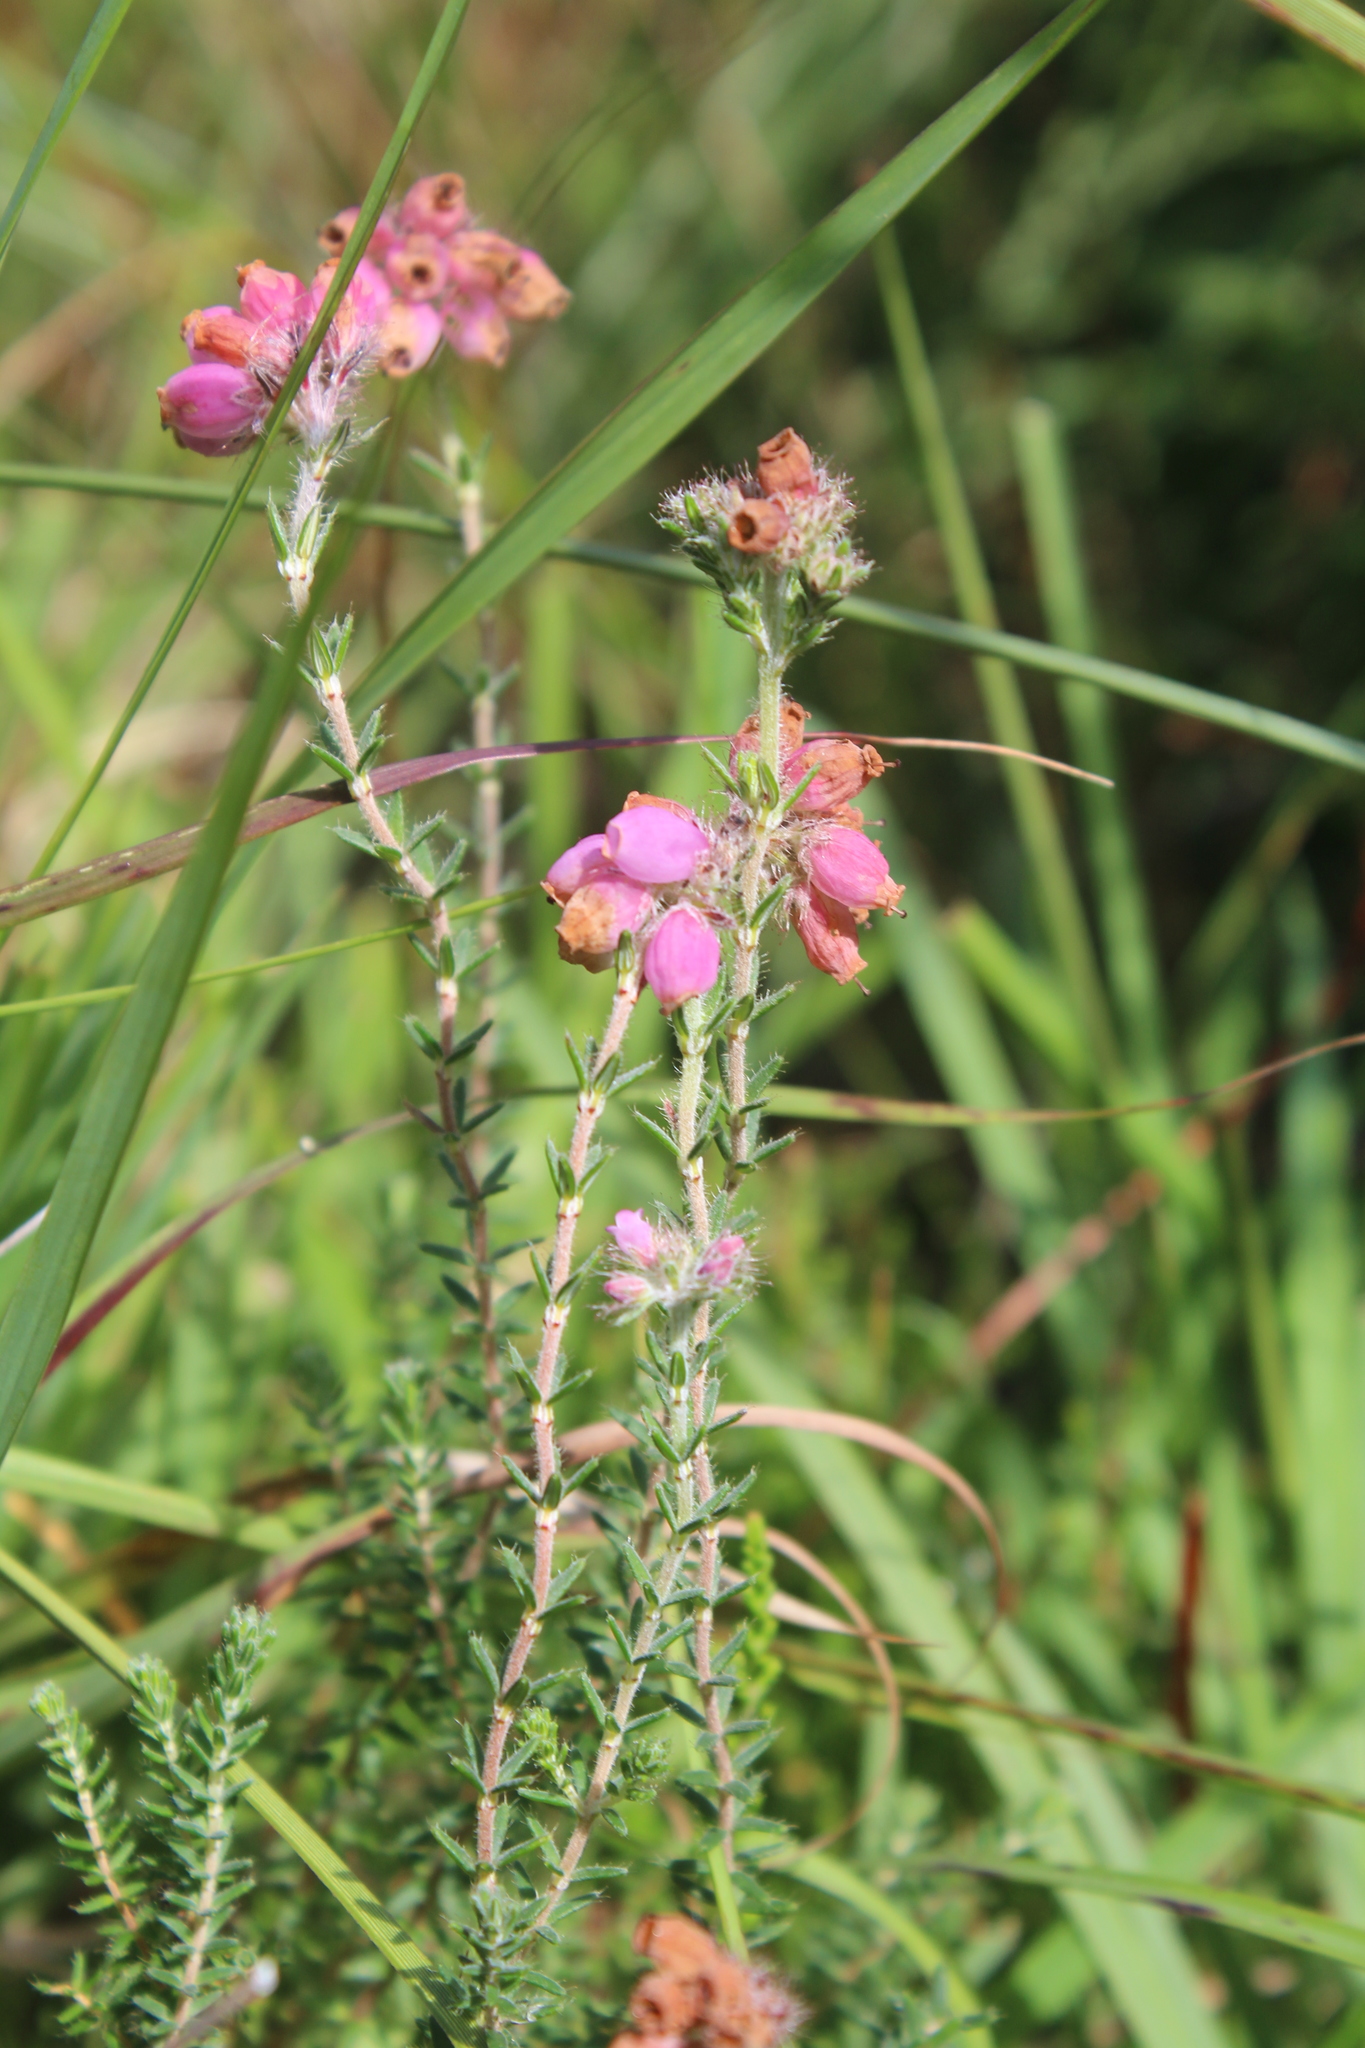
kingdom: Plantae
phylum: Tracheophyta
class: Magnoliopsida
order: Ericales
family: Ericaceae
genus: Erica
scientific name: Erica tetralix
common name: Cross-leaved heath
